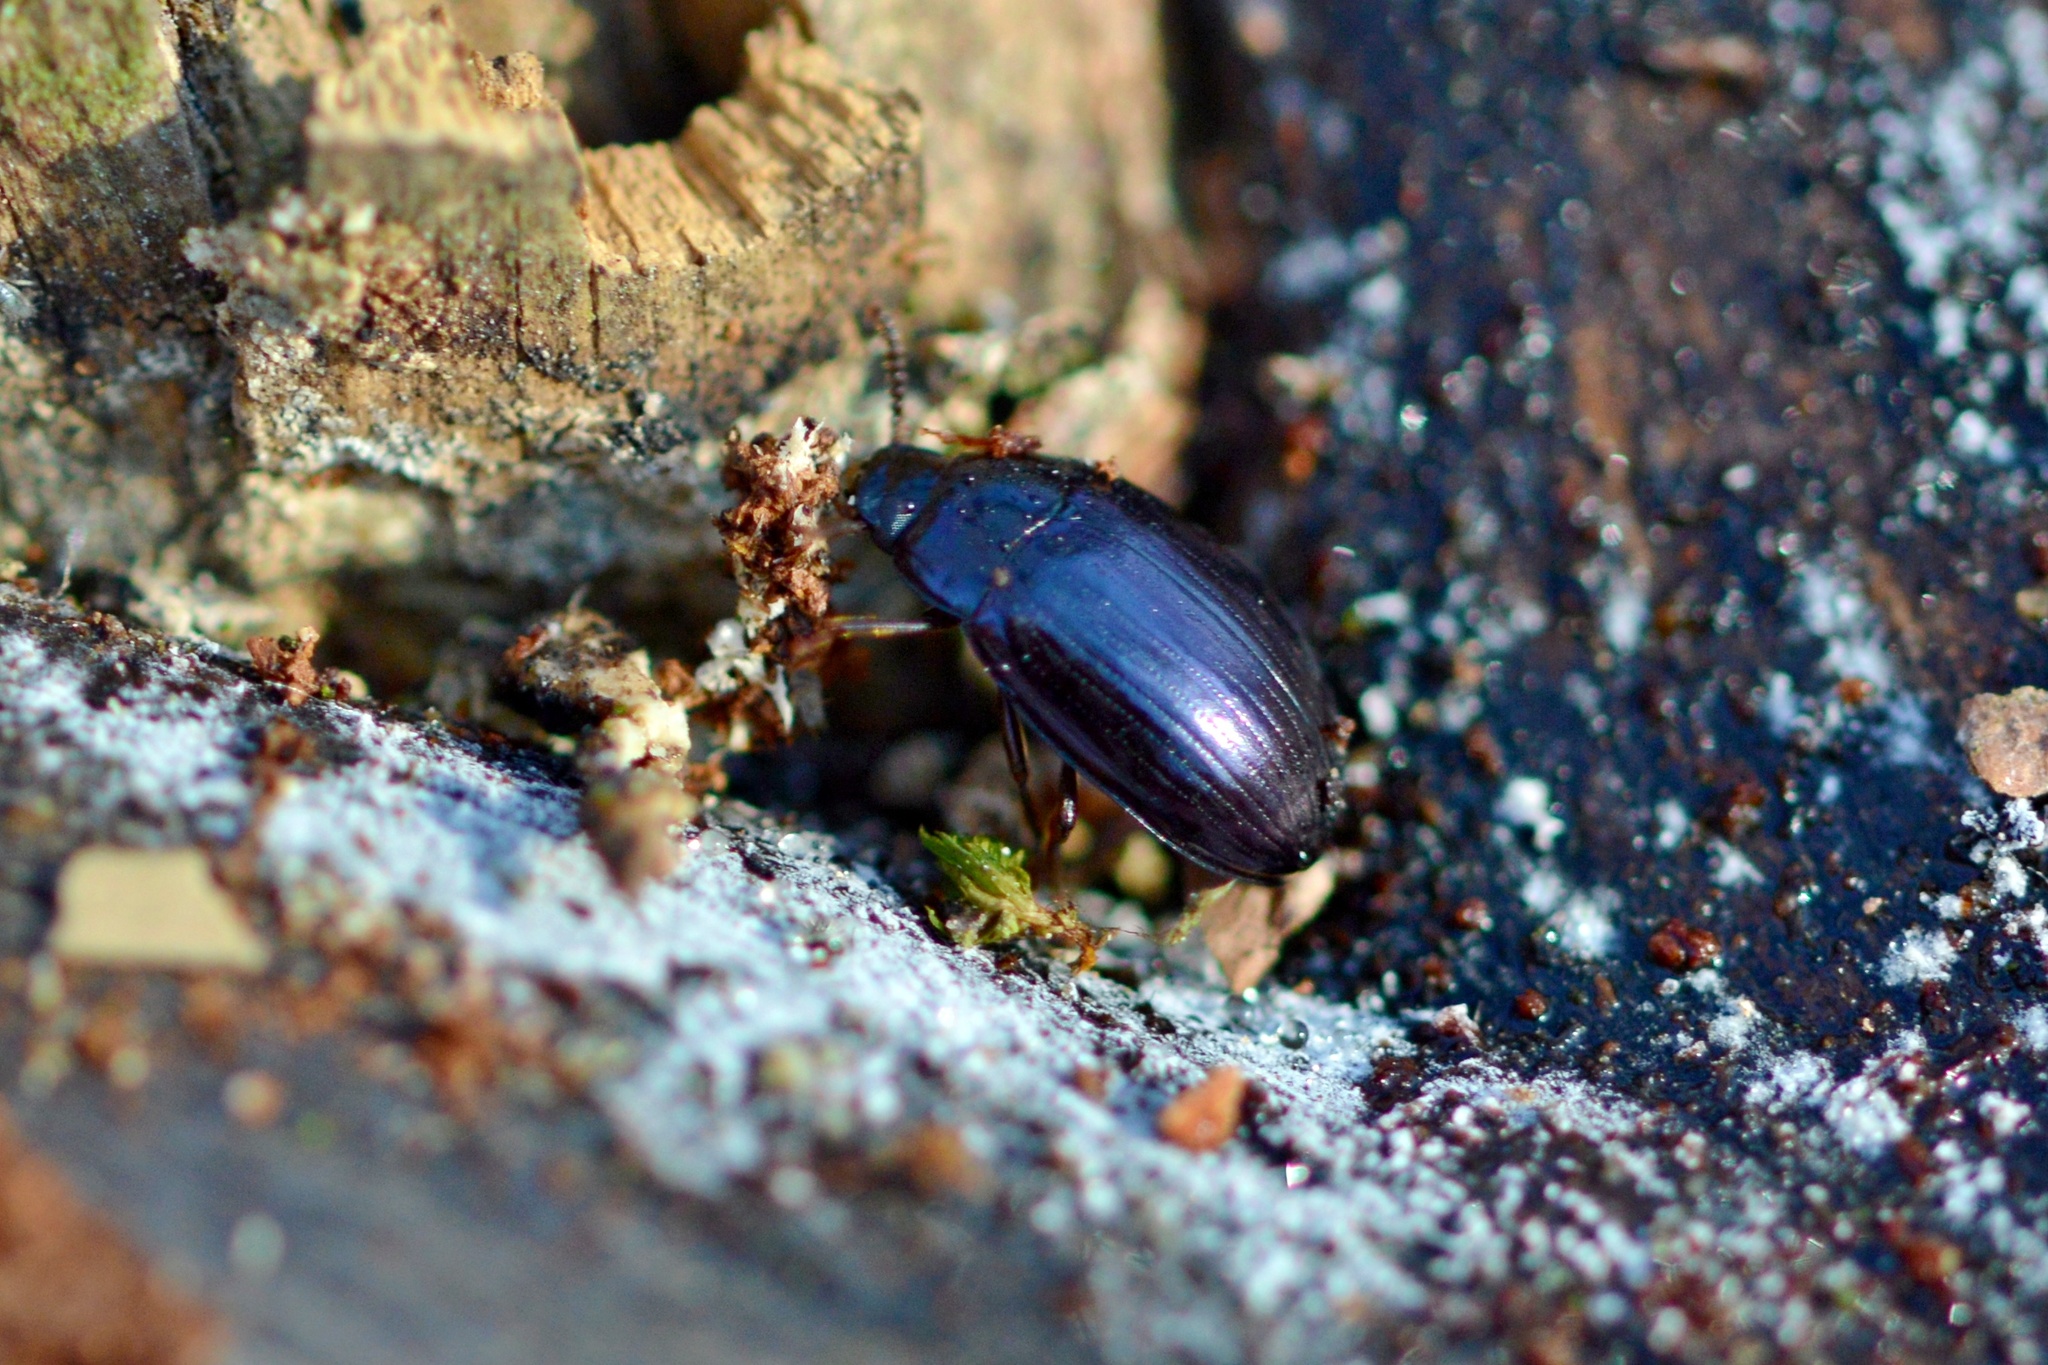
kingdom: Animalia
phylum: Arthropoda
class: Insecta
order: Coleoptera
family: Tenebrionidae
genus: Platydema
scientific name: Platydema violaceum
